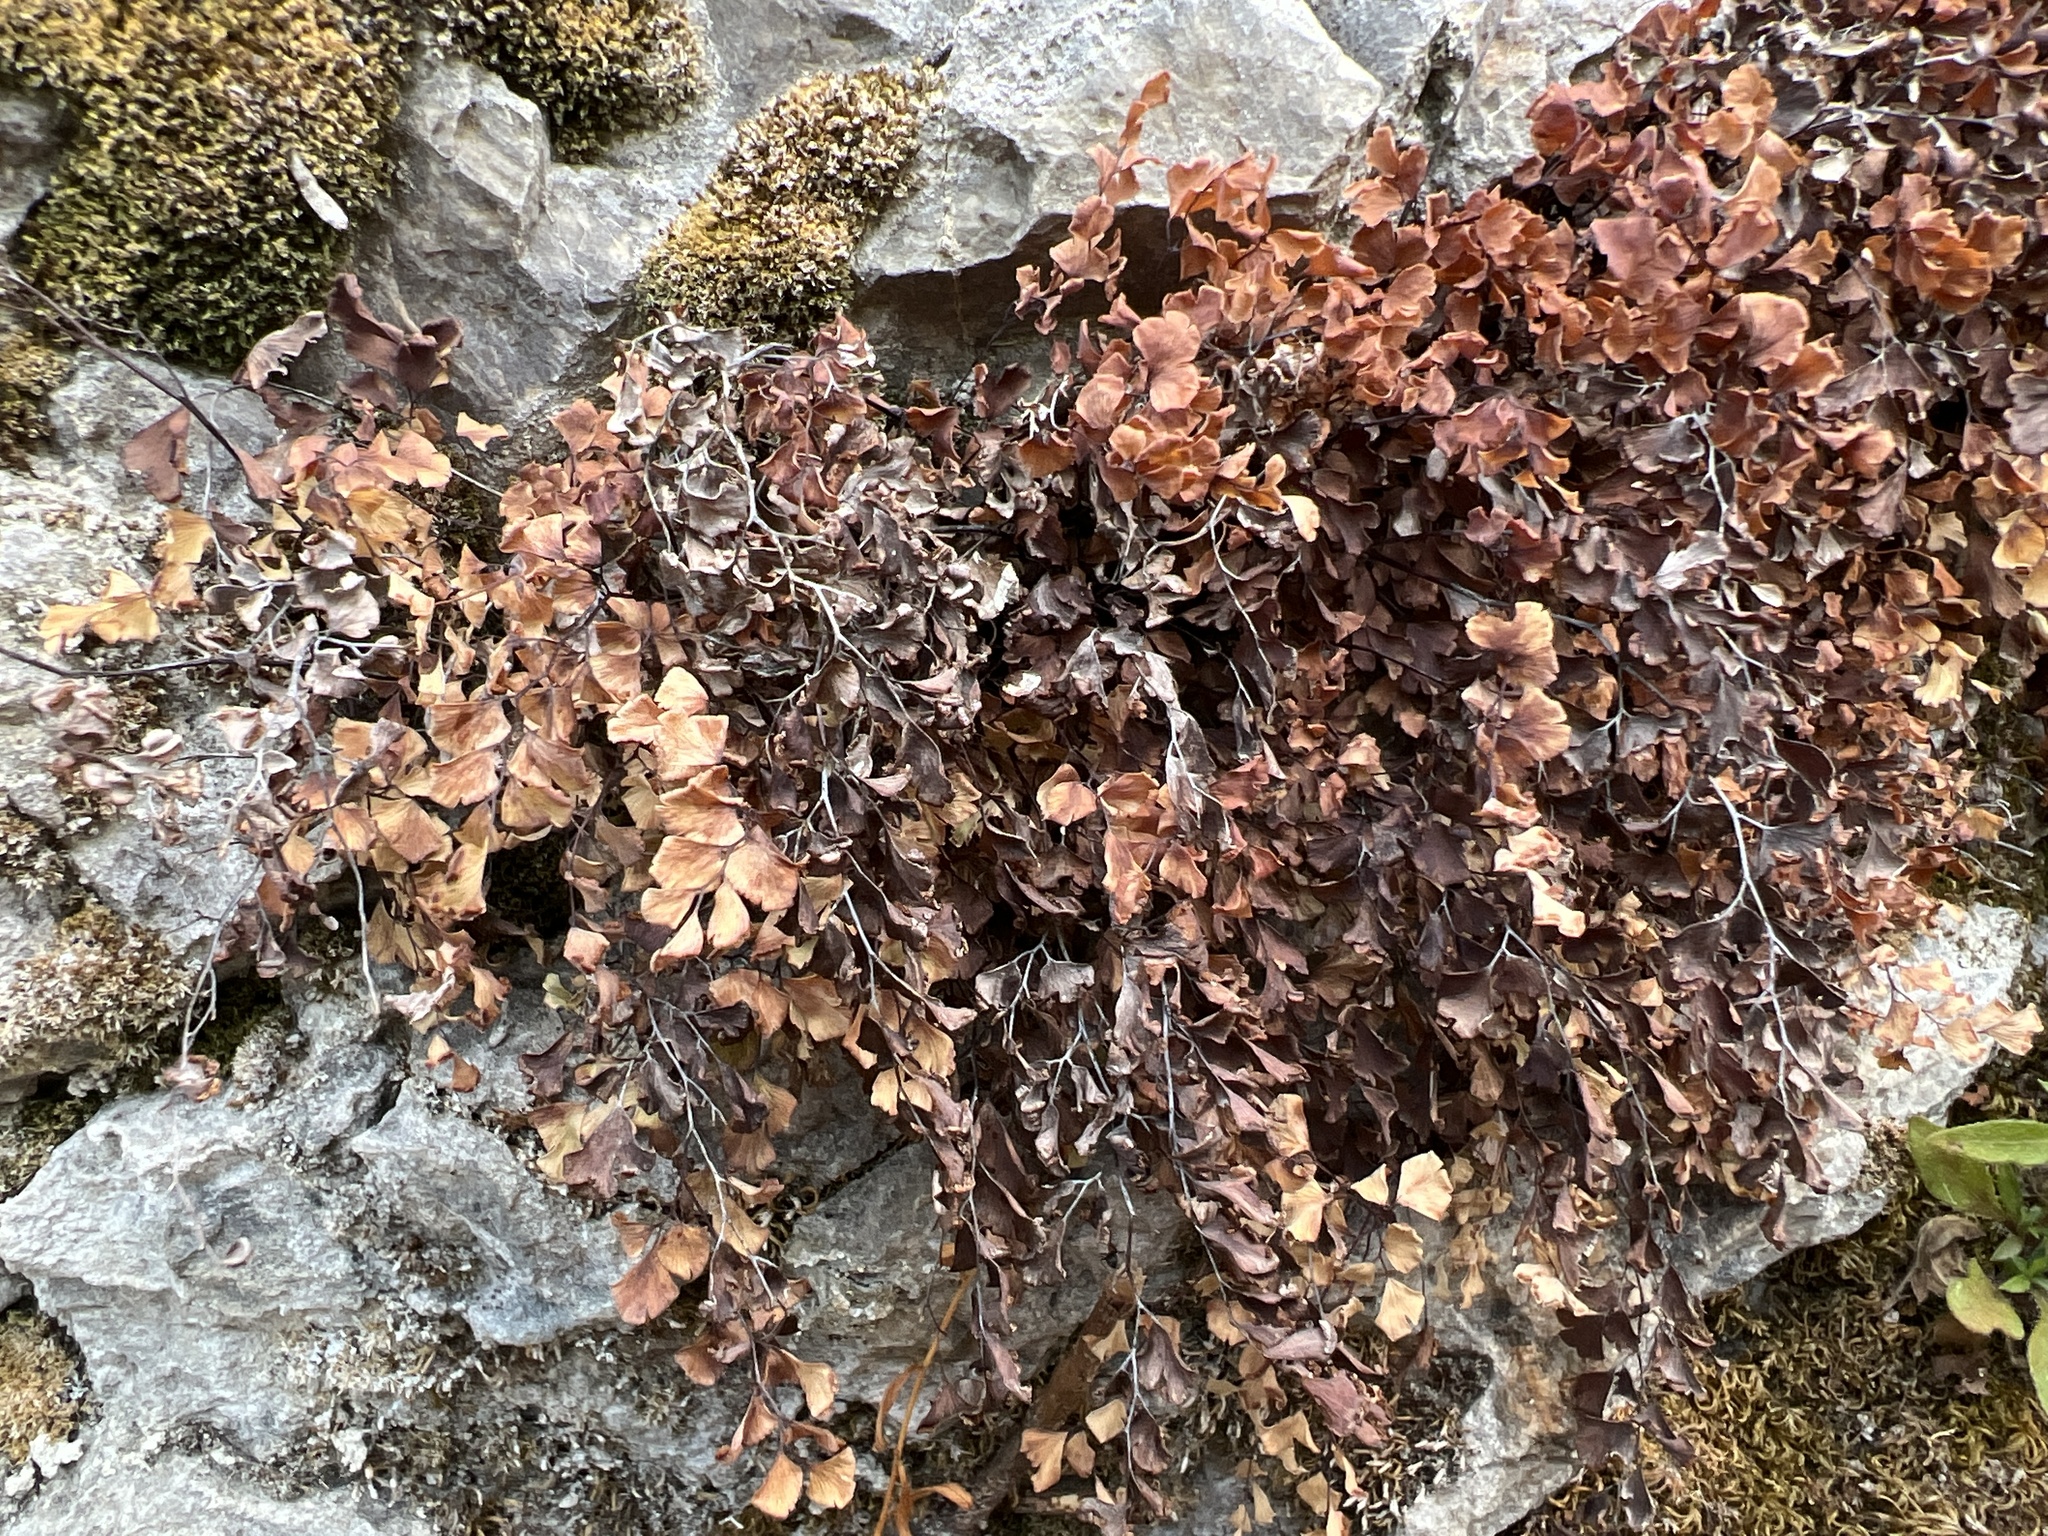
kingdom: Plantae
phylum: Tracheophyta
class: Polypodiopsida
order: Polypodiales
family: Pteridaceae
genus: Adiantum
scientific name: Adiantum capillus-veneris
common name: Maidenhair fern
